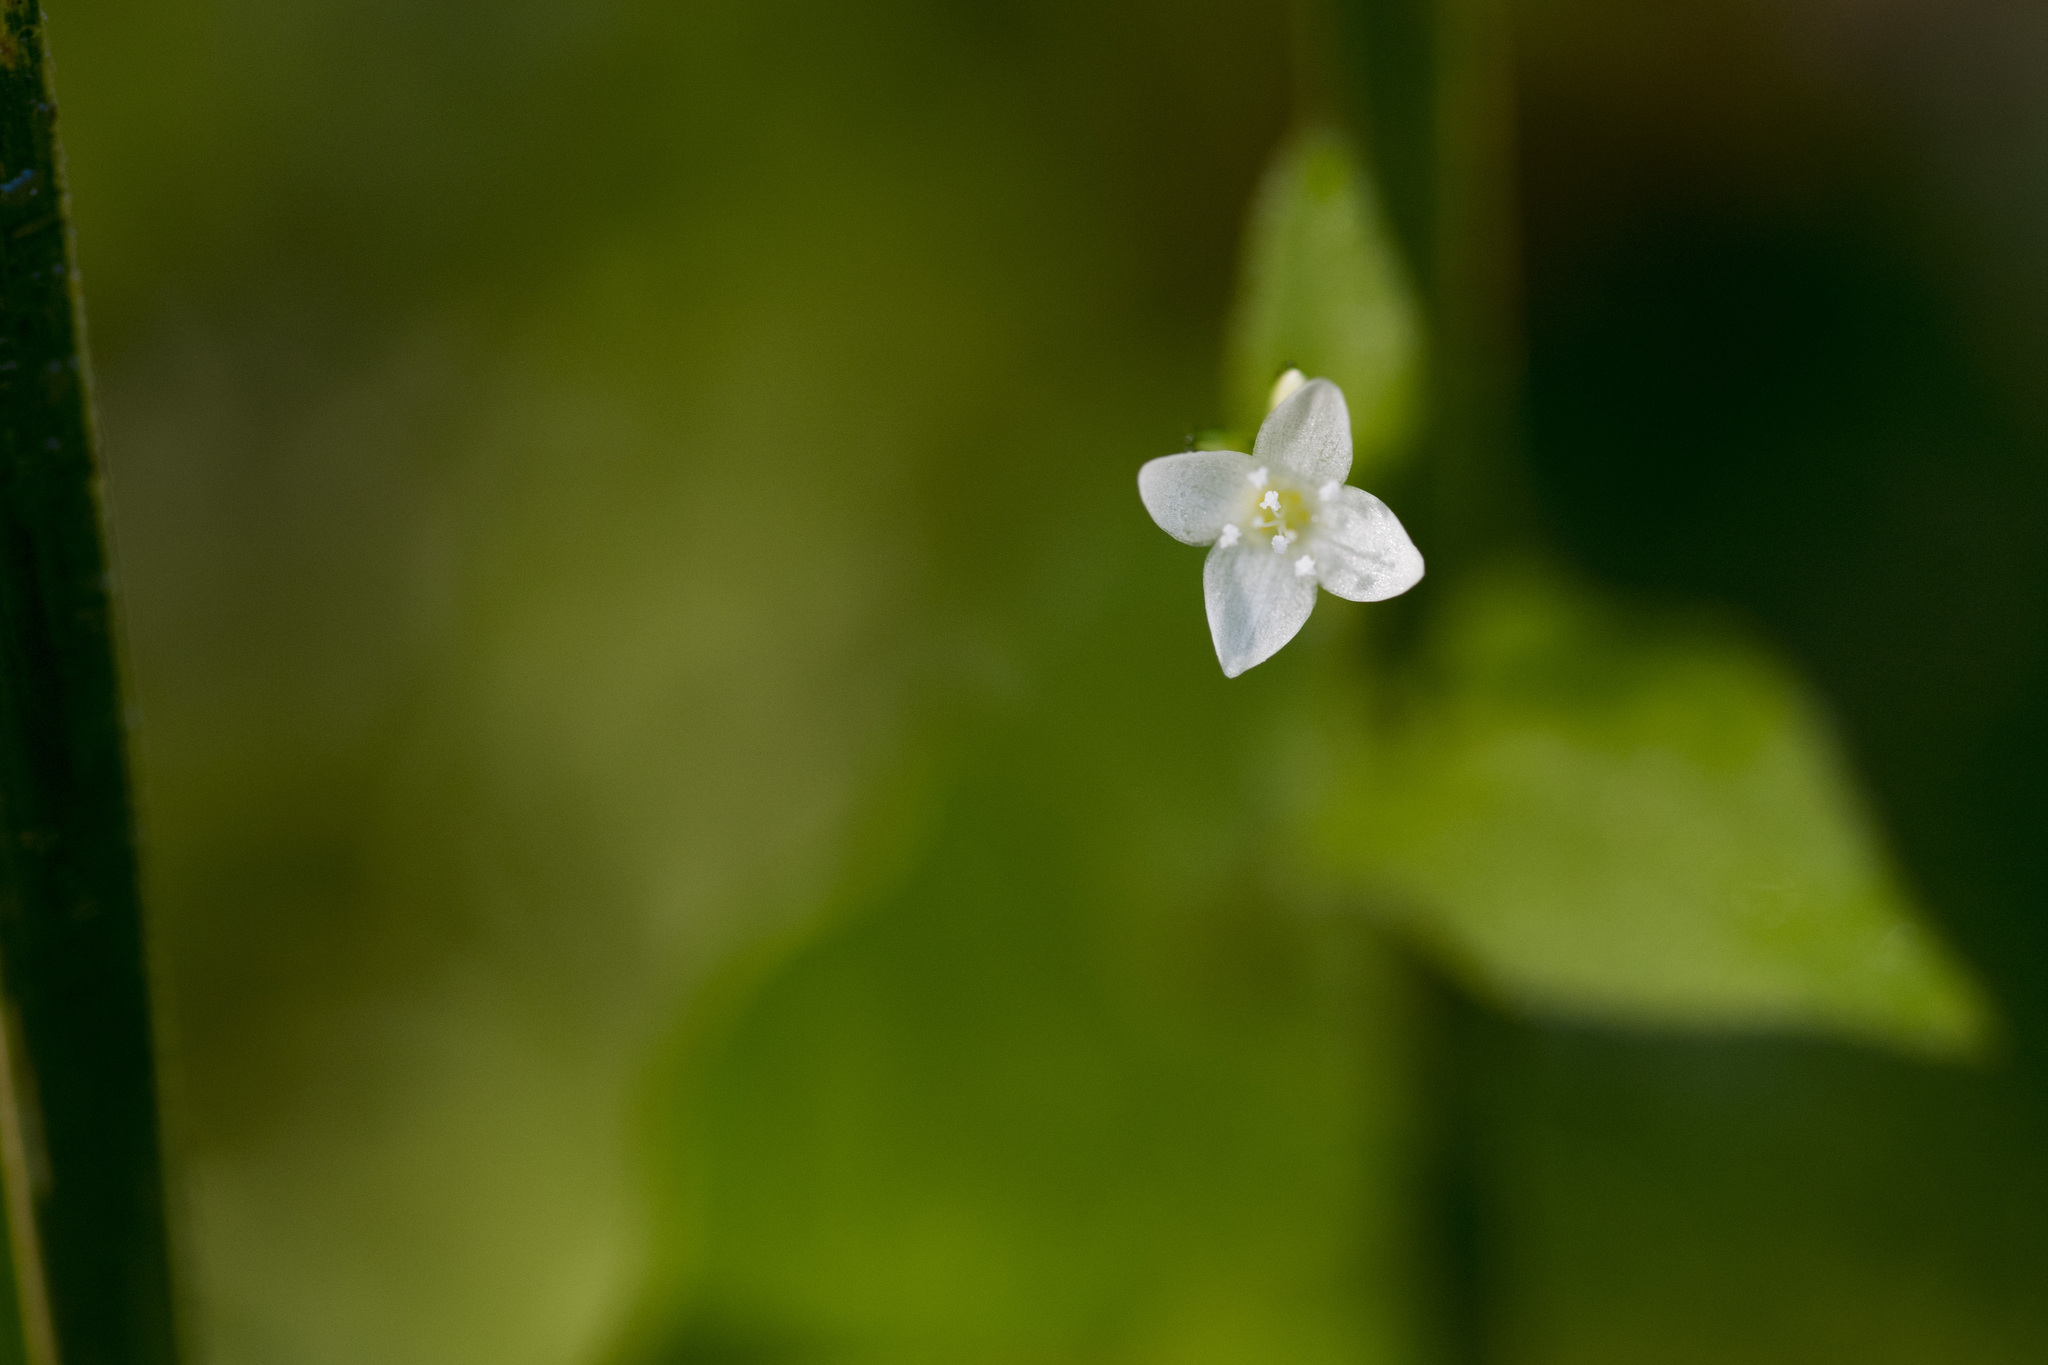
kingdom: Plantae
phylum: Tracheophyta
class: Magnoliopsida
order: Caryophyllales
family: Polygonaceae
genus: Persicaria
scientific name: Persicaria biconvexa
